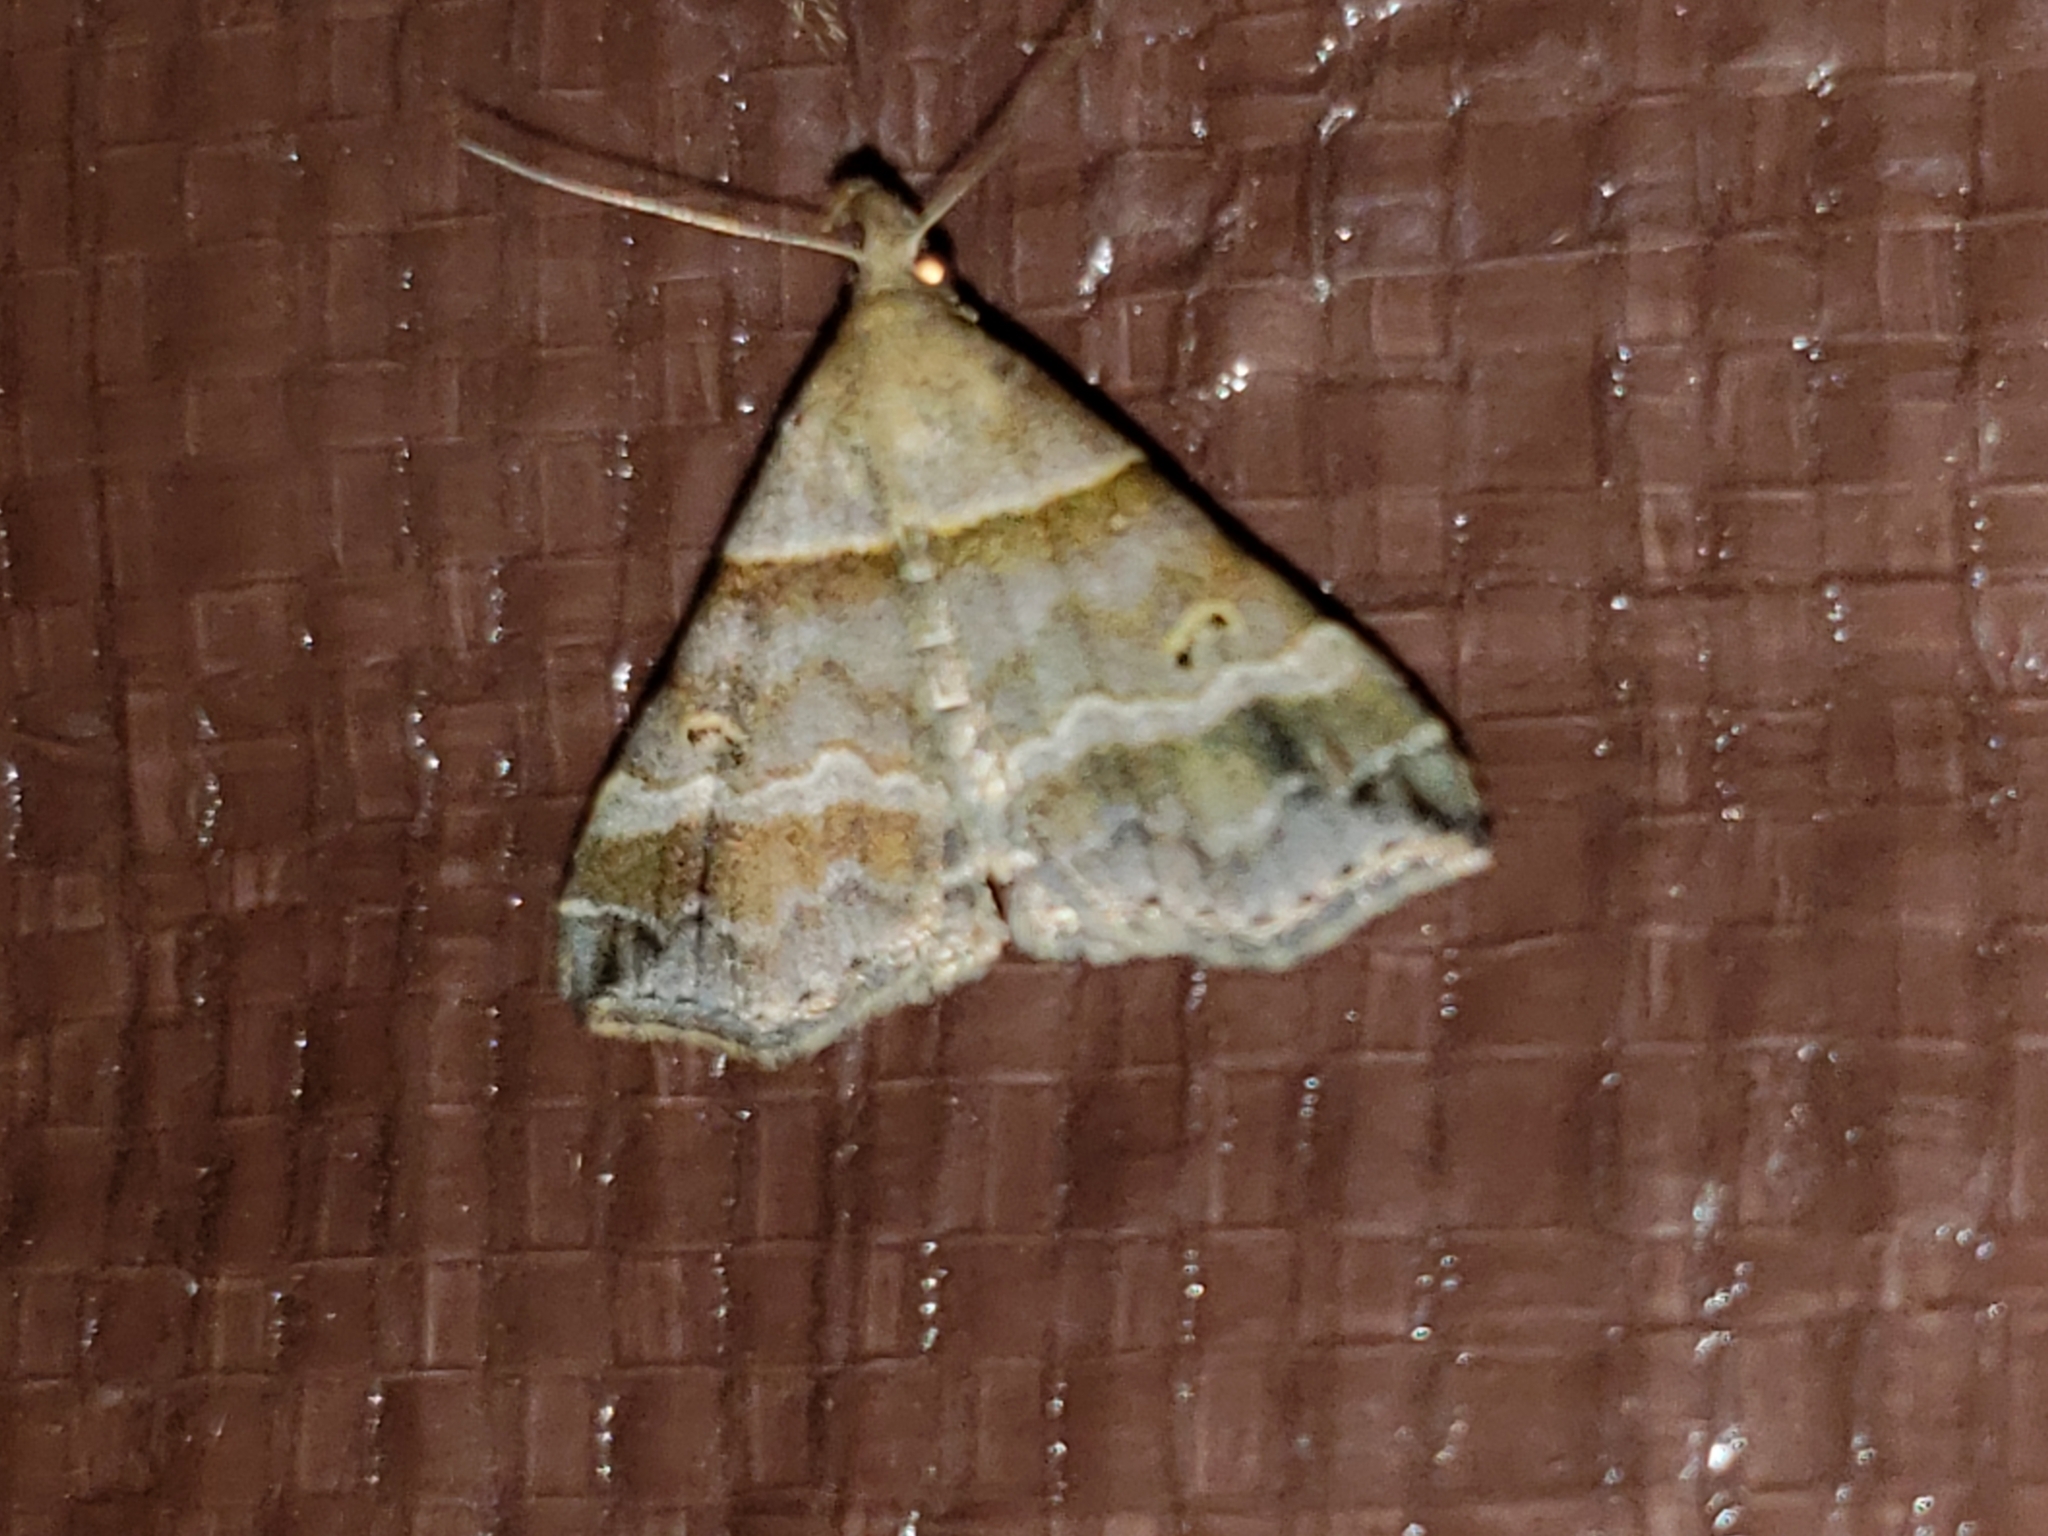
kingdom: Animalia
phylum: Arthropoda
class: Insecta
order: Lepidoptera
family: Erebidae
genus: Phaeolita
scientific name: Phaeolita pyramusalis
